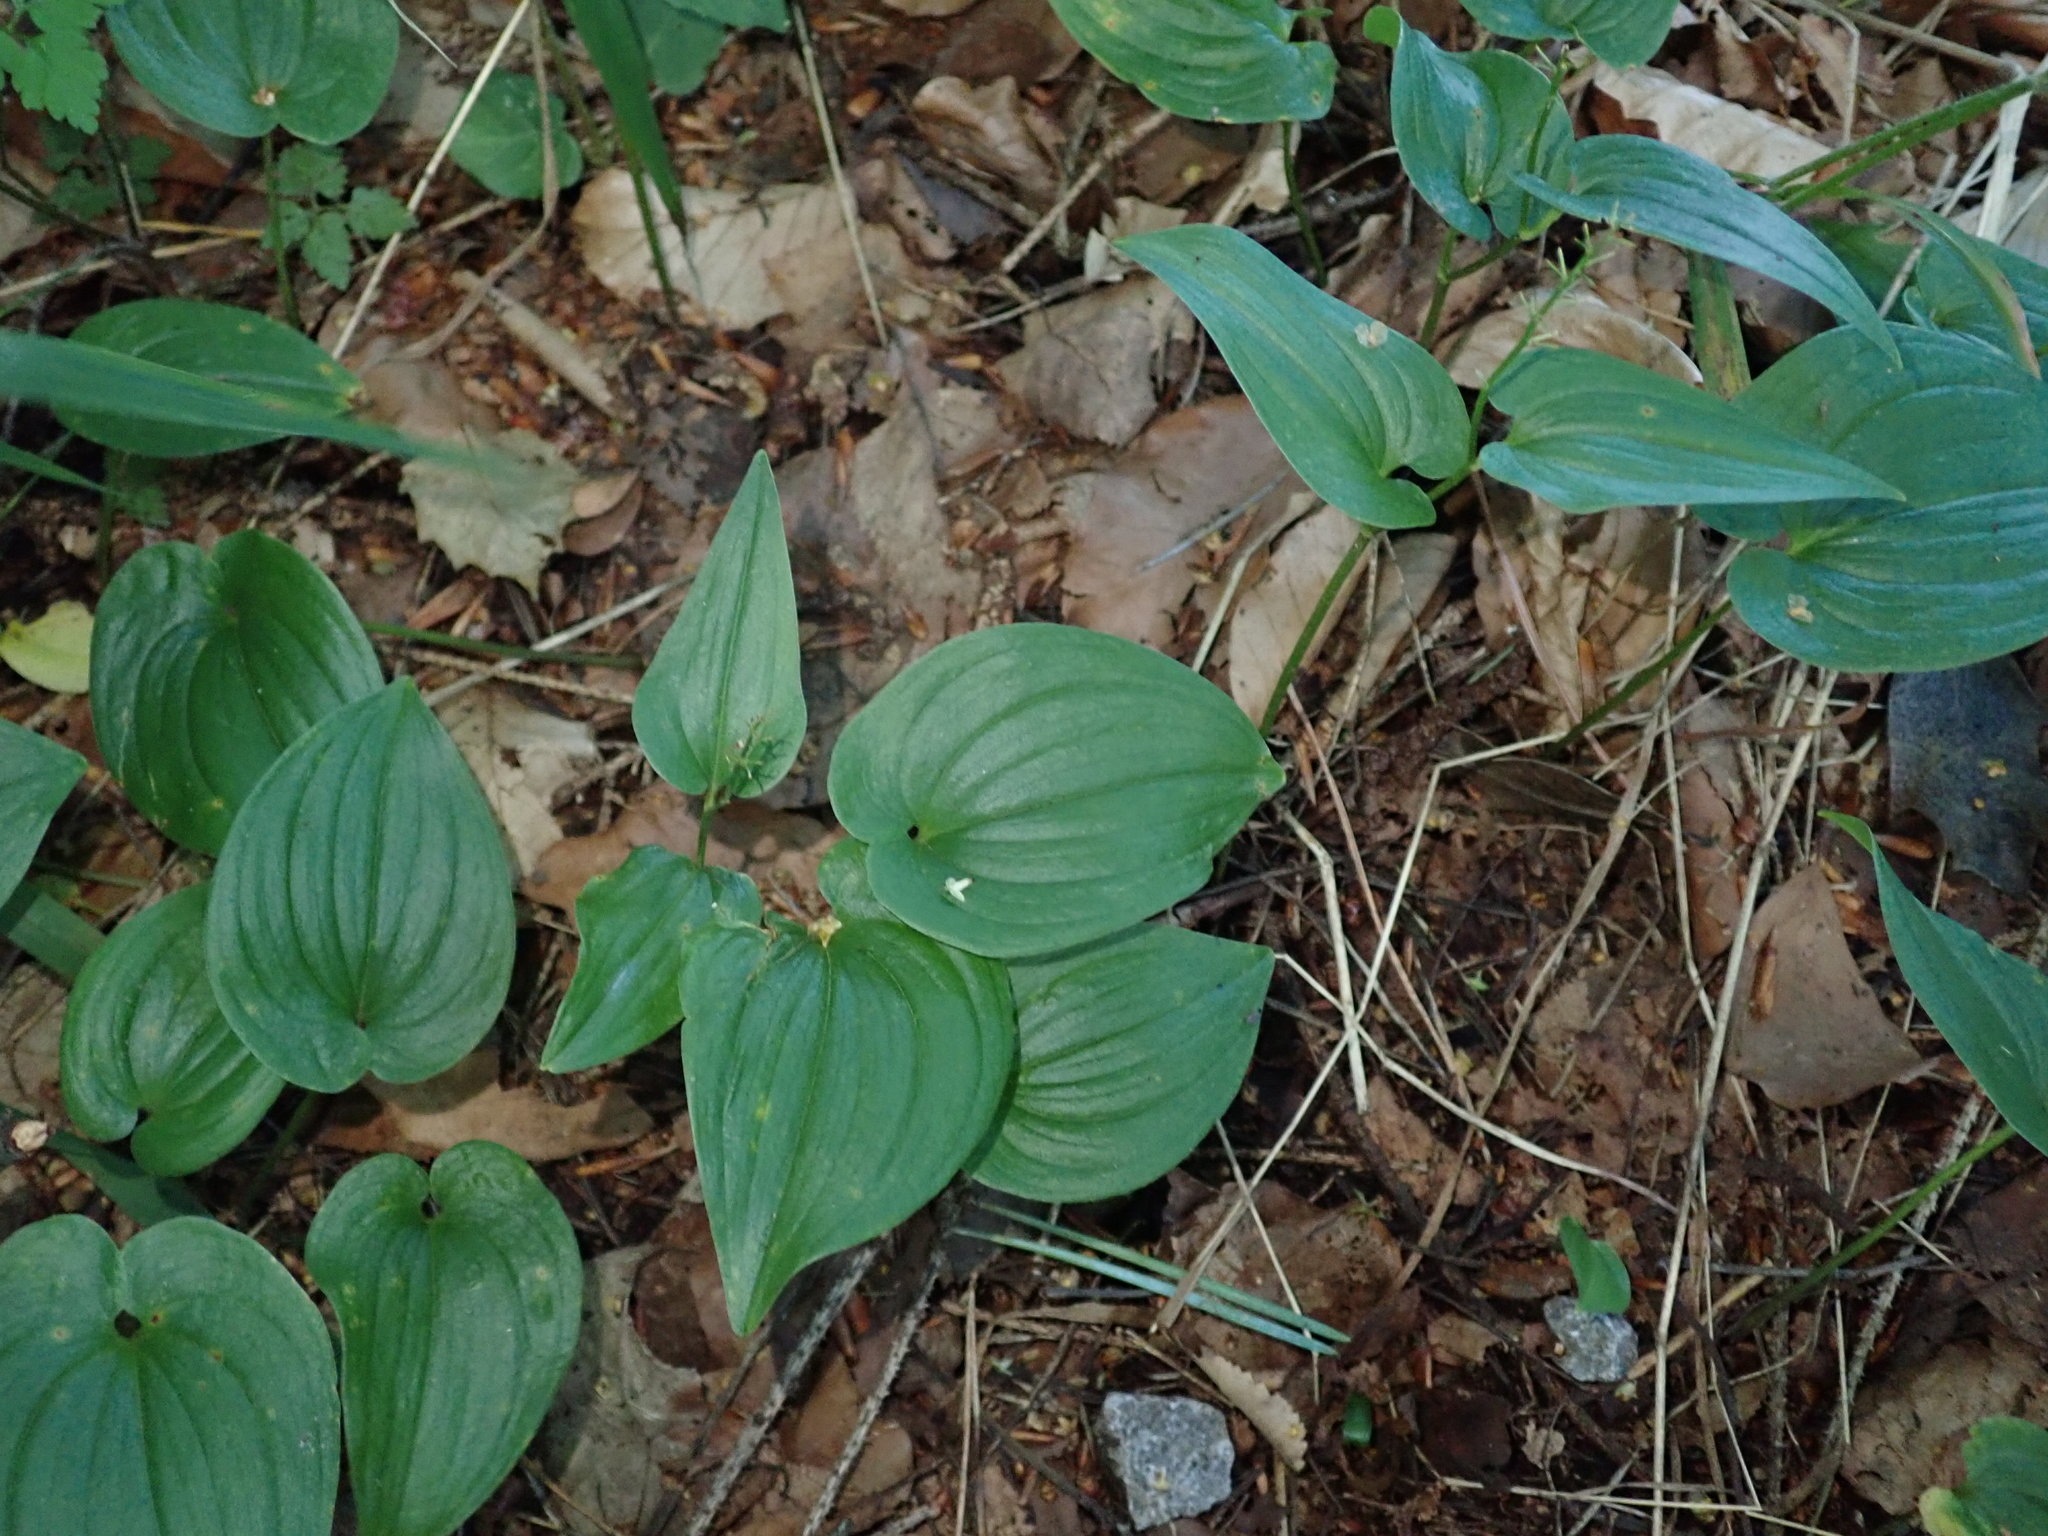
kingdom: Plantae
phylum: Tracheophyta
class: Liliopsida
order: Asparagales
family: Asparagaceae
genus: Maianthemum
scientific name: Maianthemum bifolium
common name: May lily
